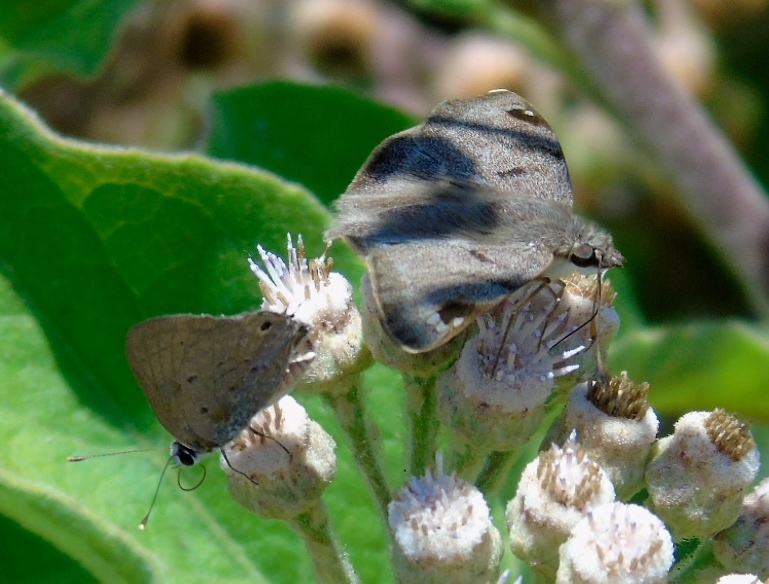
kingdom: Animalia
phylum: Arthropoda
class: Insecta
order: Lepidoptera
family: Lycaenidae
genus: Callicista
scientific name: Callicista columella
